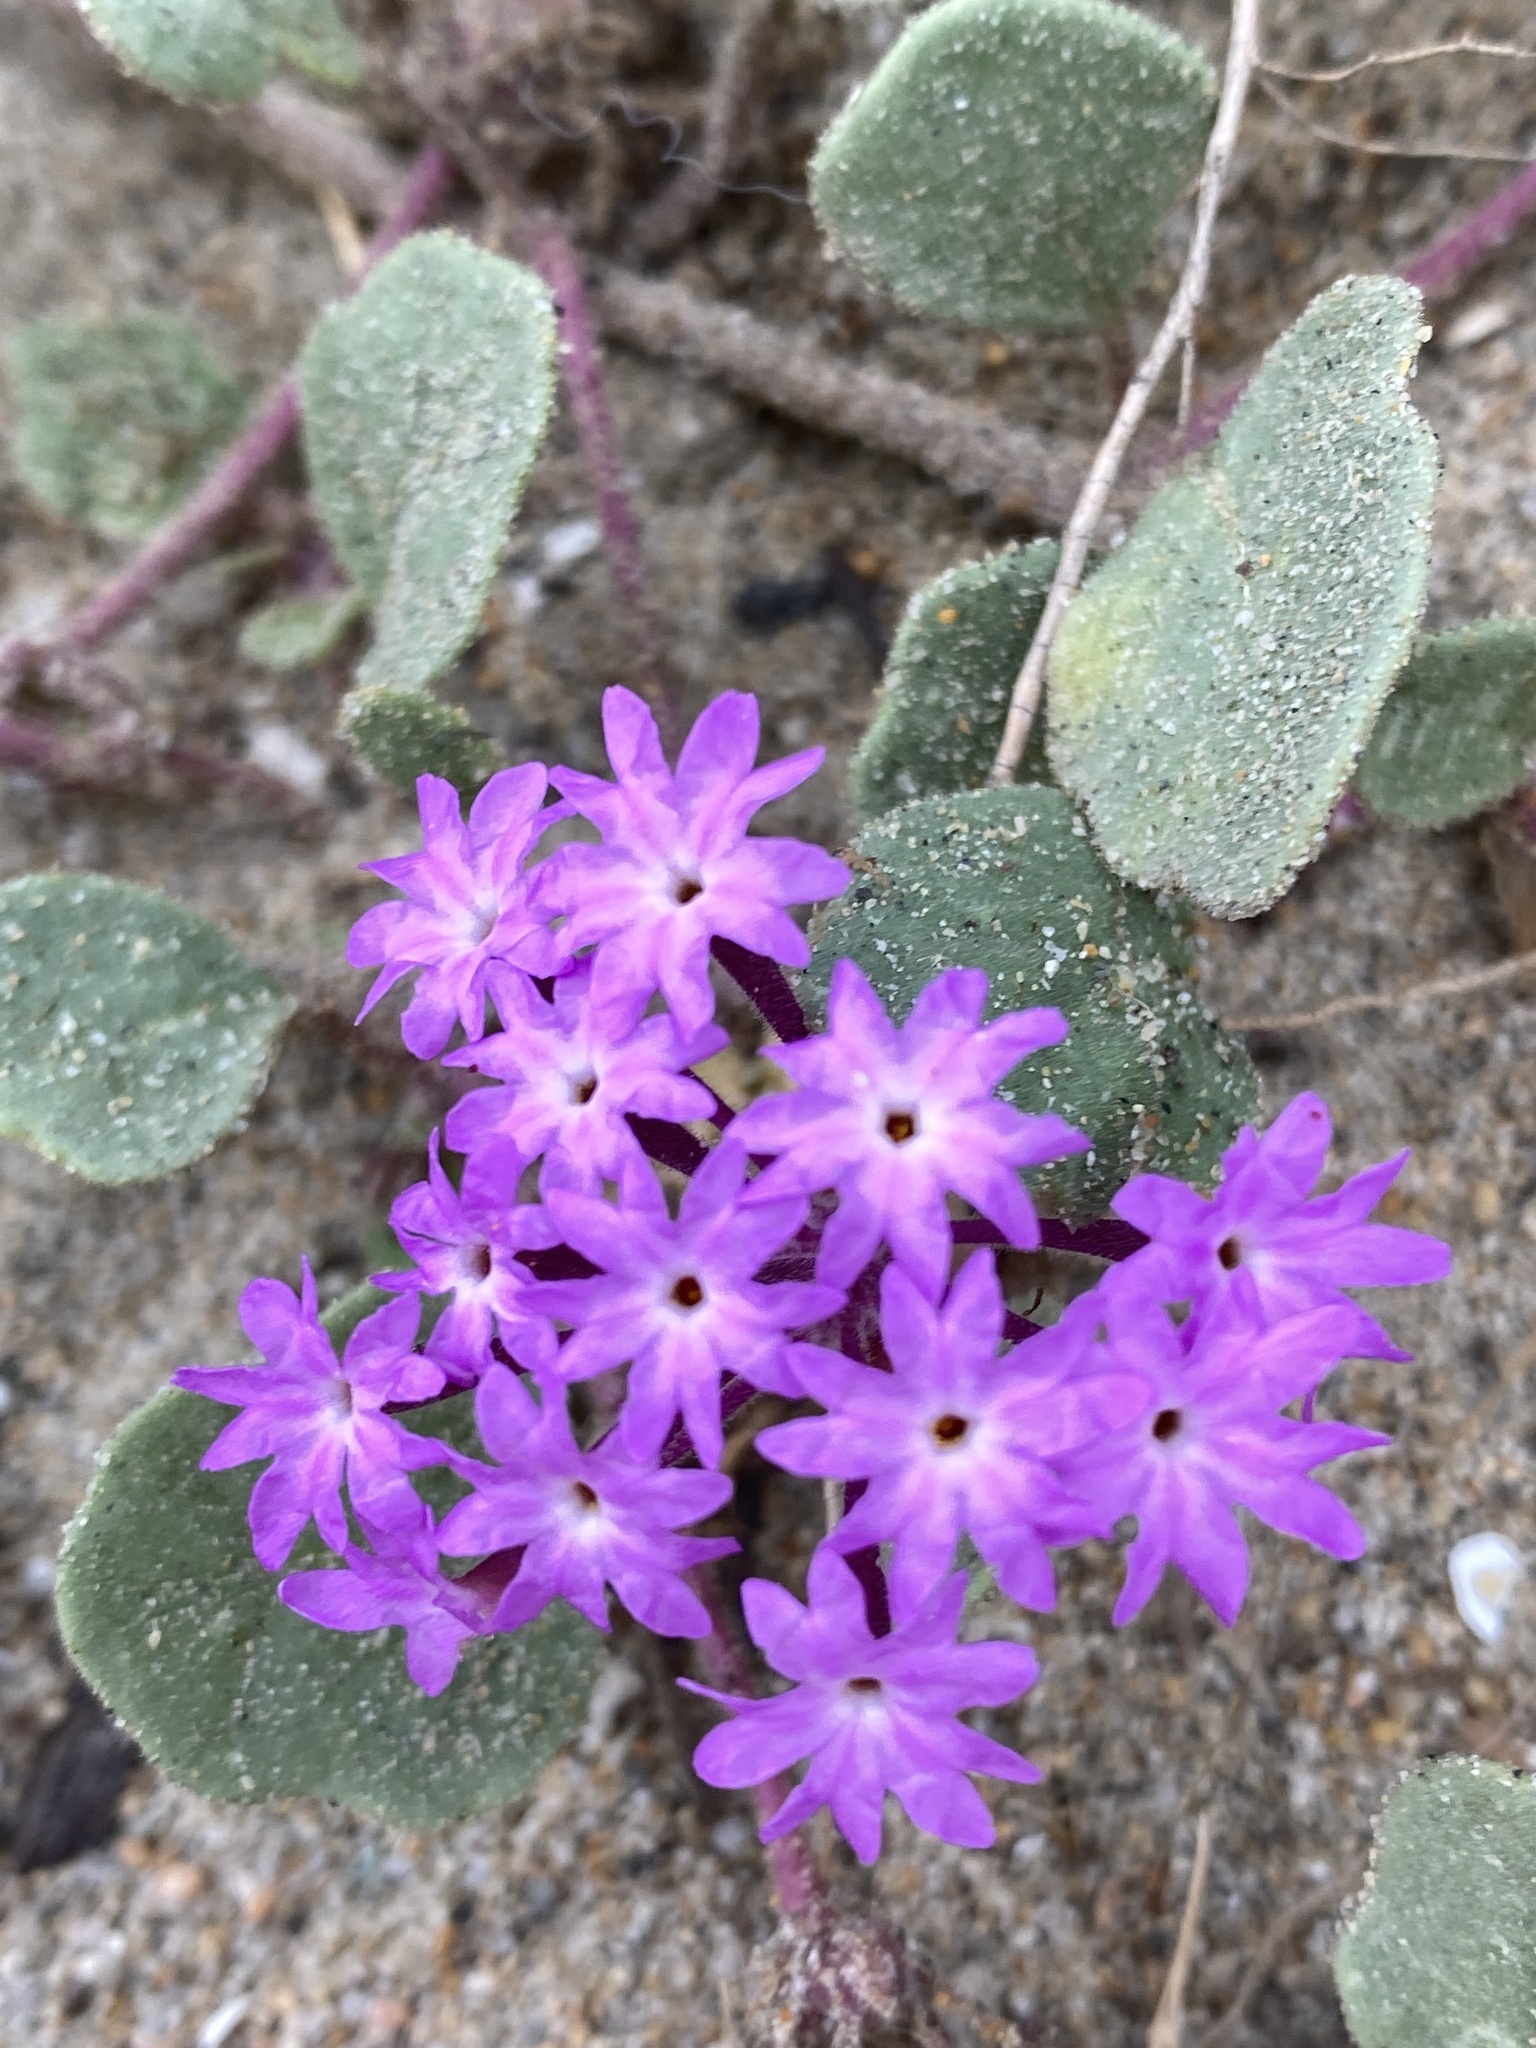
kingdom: Plantae
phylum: Tracheophyta
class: Magnoliopsida
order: Caryophyllales
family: Nyctaginaceae
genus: Abronia
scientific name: Abronia umbellata
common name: Sand-verbena
